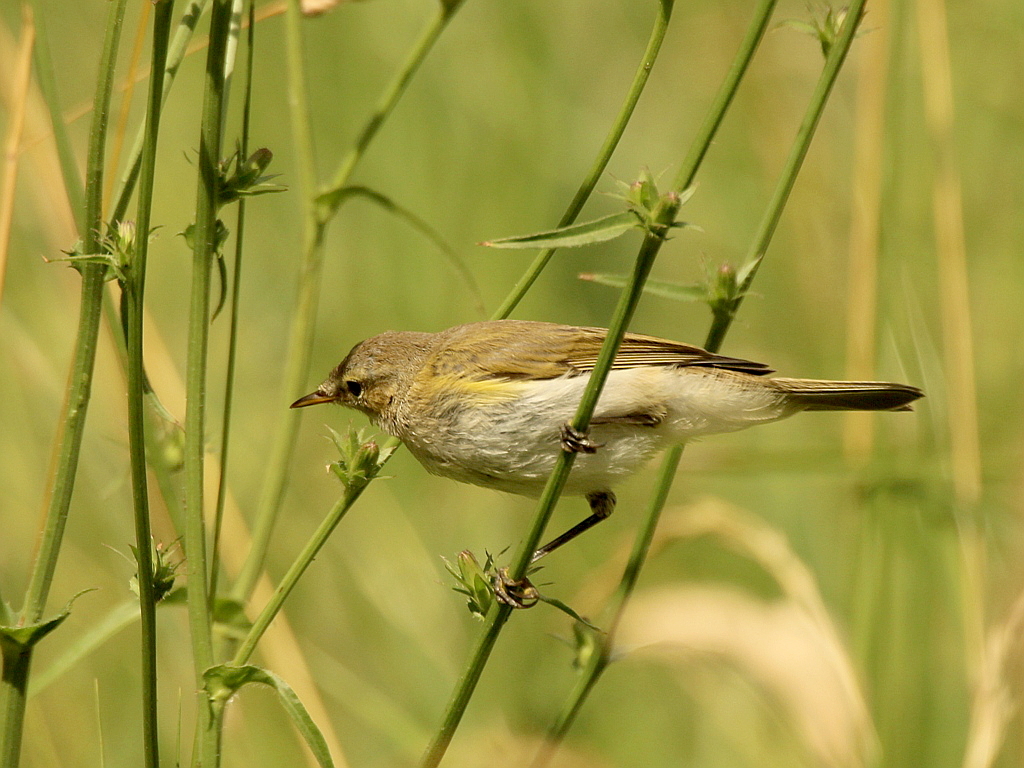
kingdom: Animalia
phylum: Chordata
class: Aves
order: Passeriformes
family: Phylloscopidae
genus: Phylloscopus
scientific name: Phylloscopus collybita
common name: Common chiffchaff
